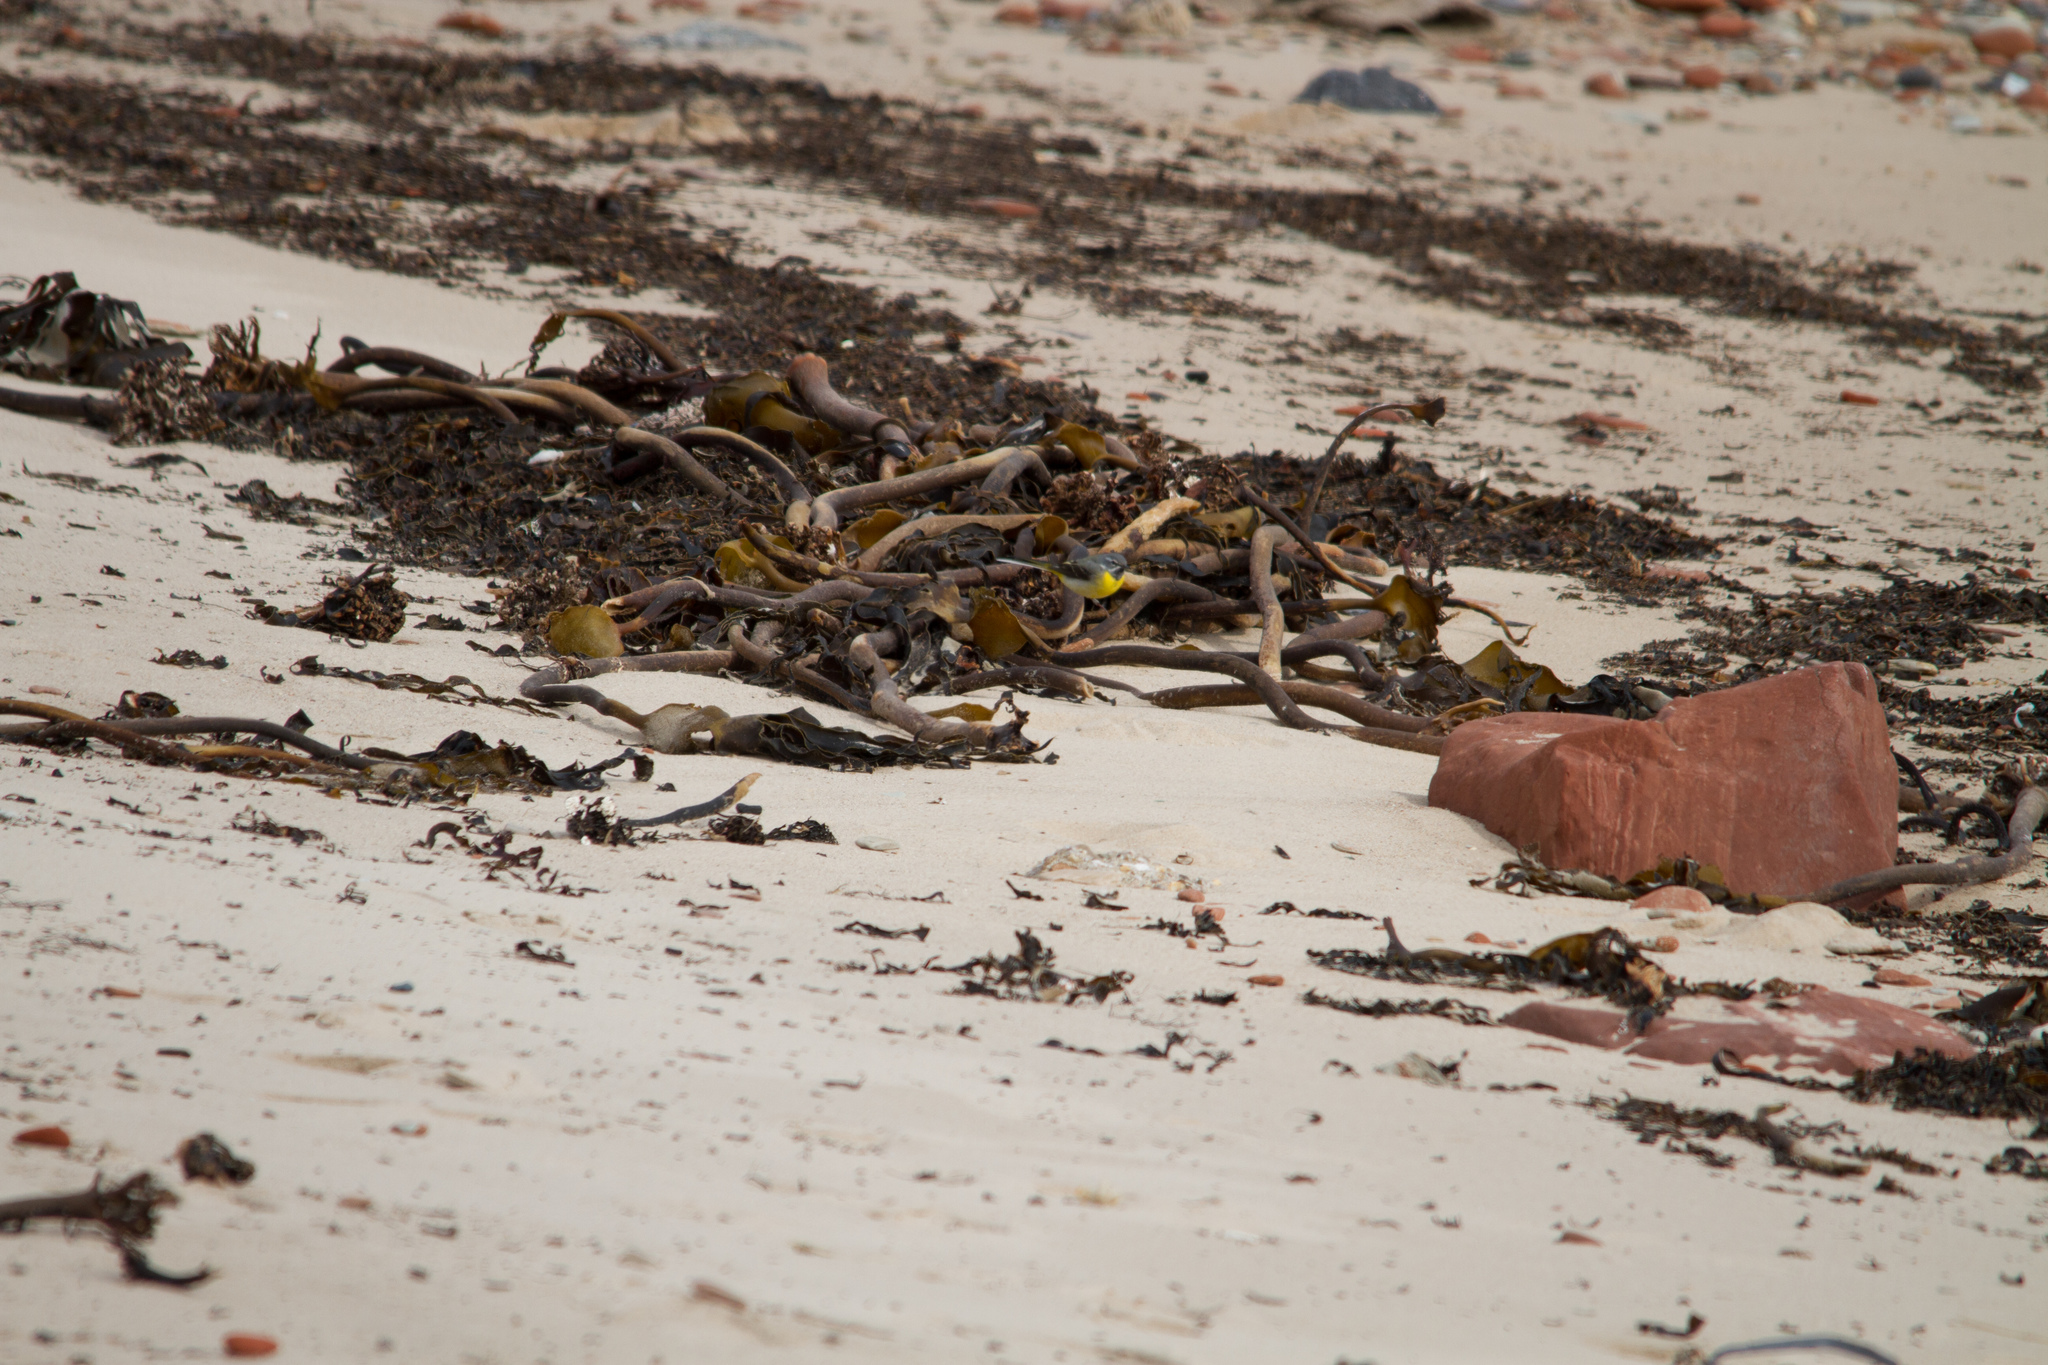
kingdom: Animalia
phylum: Chordata
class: Aves
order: Passeriformes
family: Motacillidae
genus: Motacilla
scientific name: Motacilla cinerea
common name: Grey wagtail
